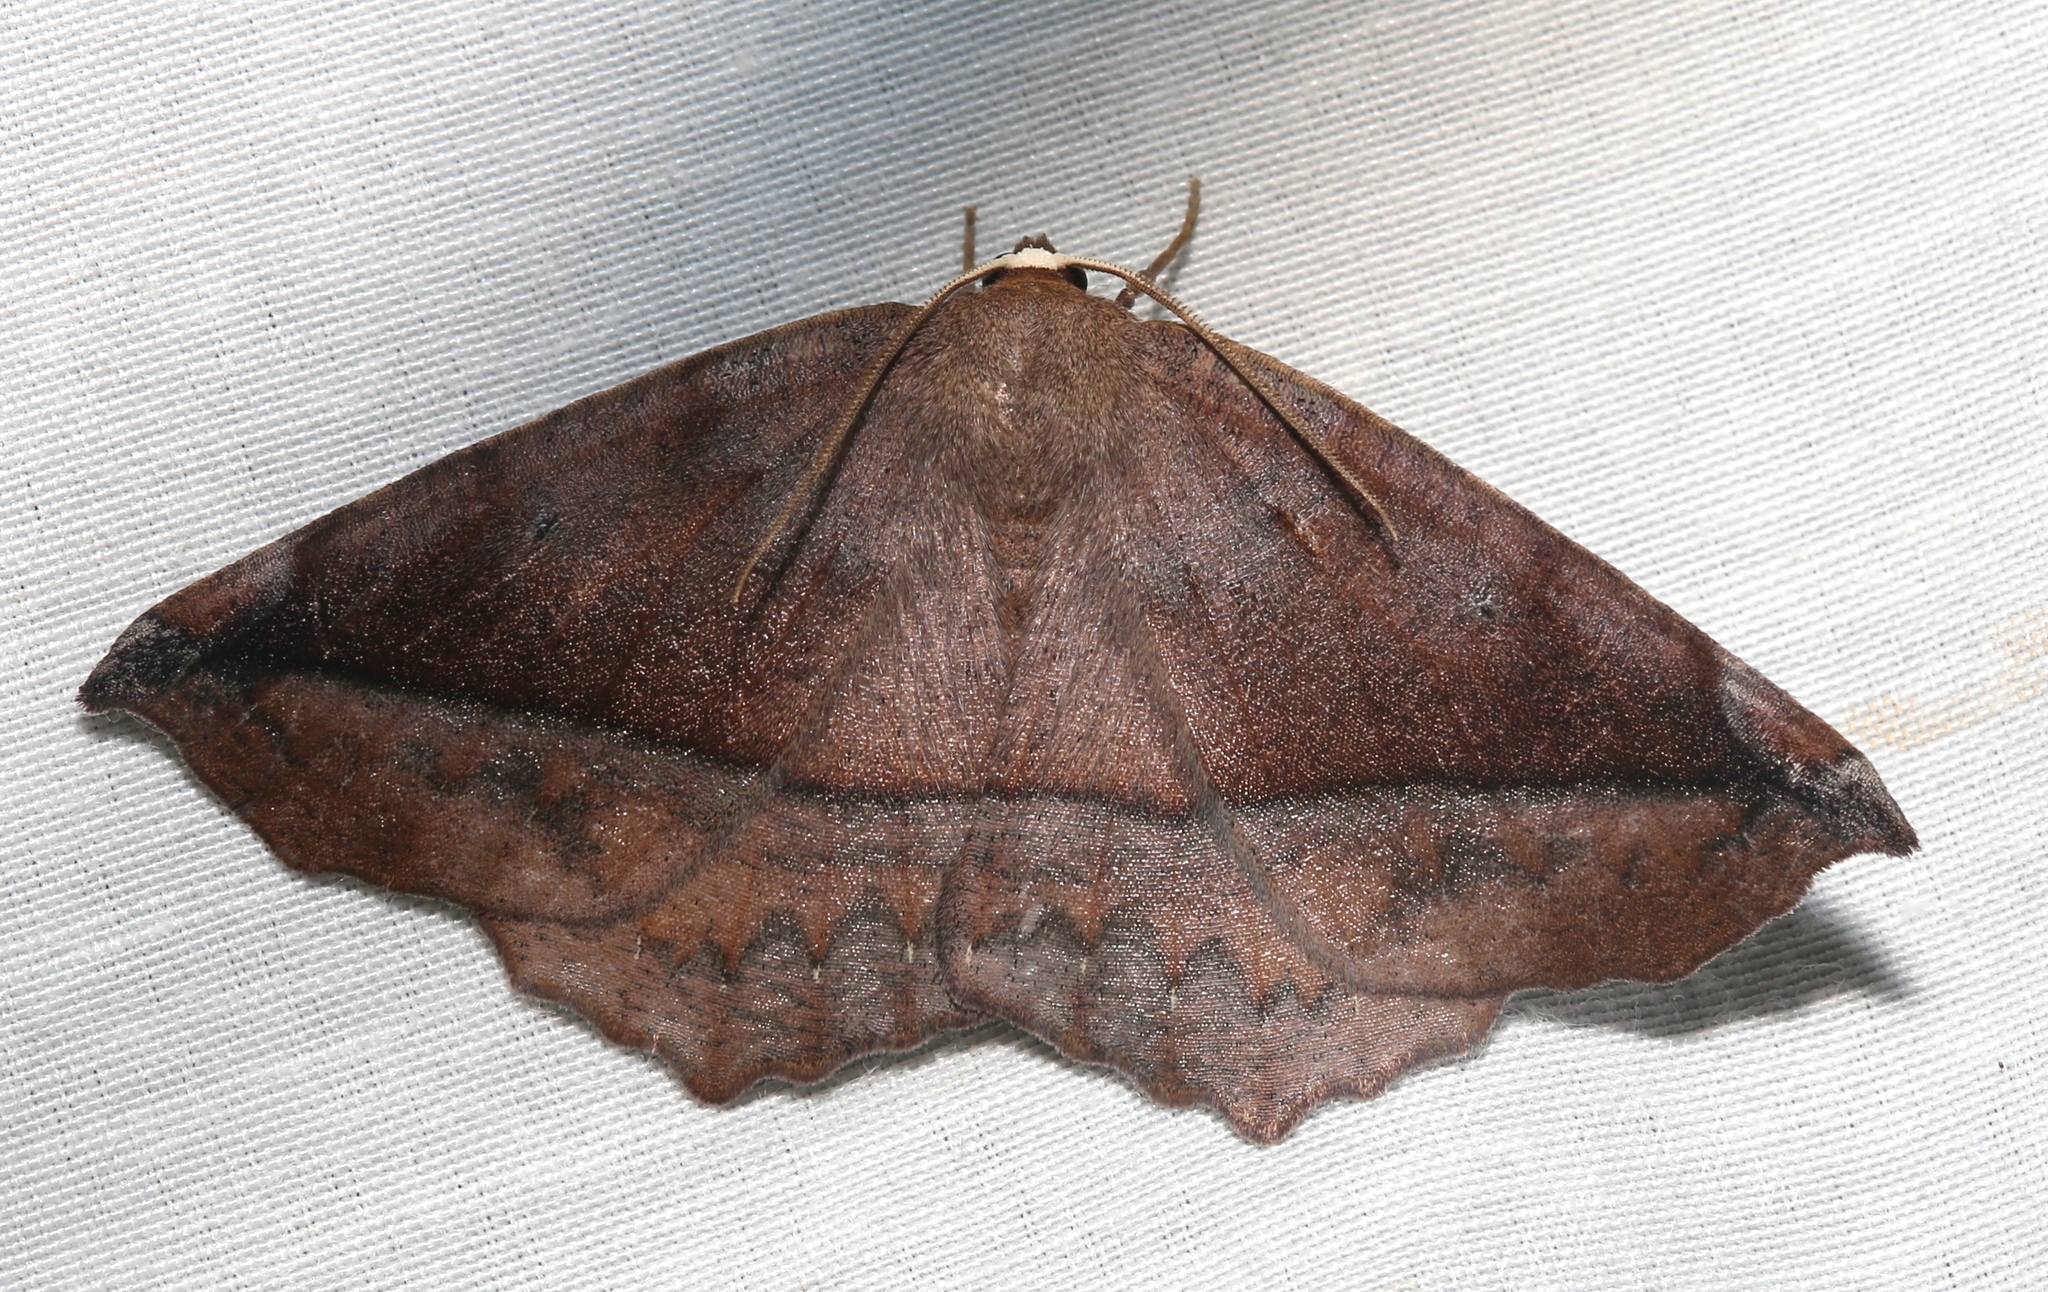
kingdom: Animalia
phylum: Arthropoda
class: Insecta
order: Lepidoptera
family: Geometridae
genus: Eutrapela
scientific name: Eutrapela clemataria
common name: Curved-toothed geometer
